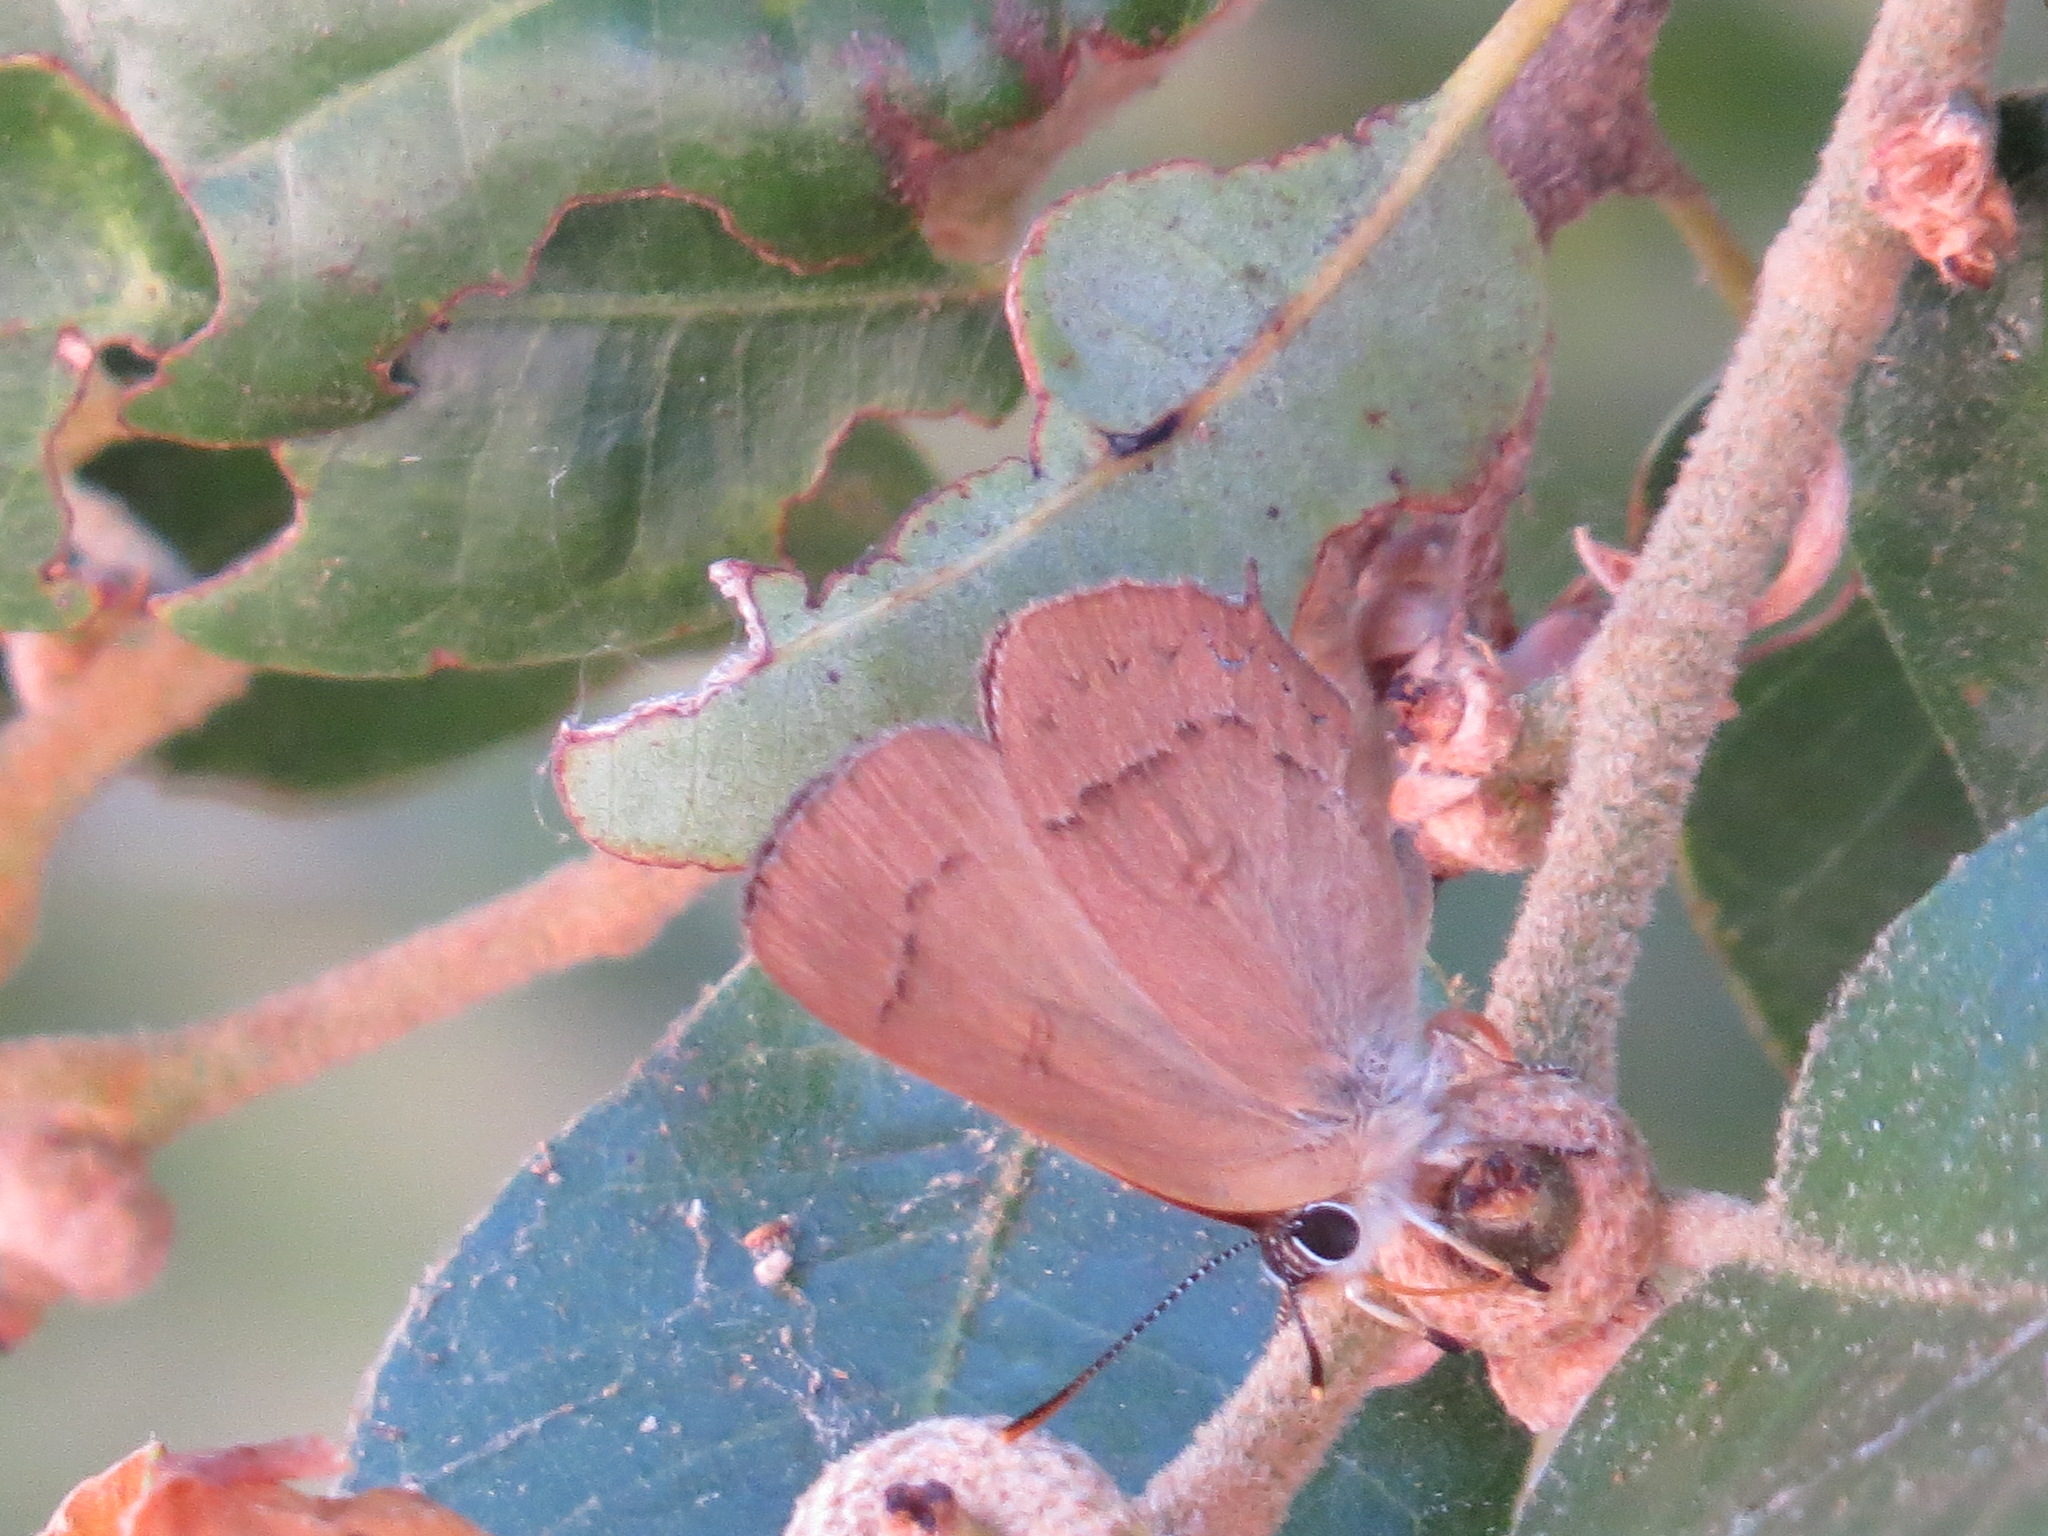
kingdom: Animalia
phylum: Arthropoda
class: Insecta
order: Lepidoptera
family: Lycaenidae
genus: Habrodais
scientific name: Habrodais grunus
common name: Golden hairstreak
